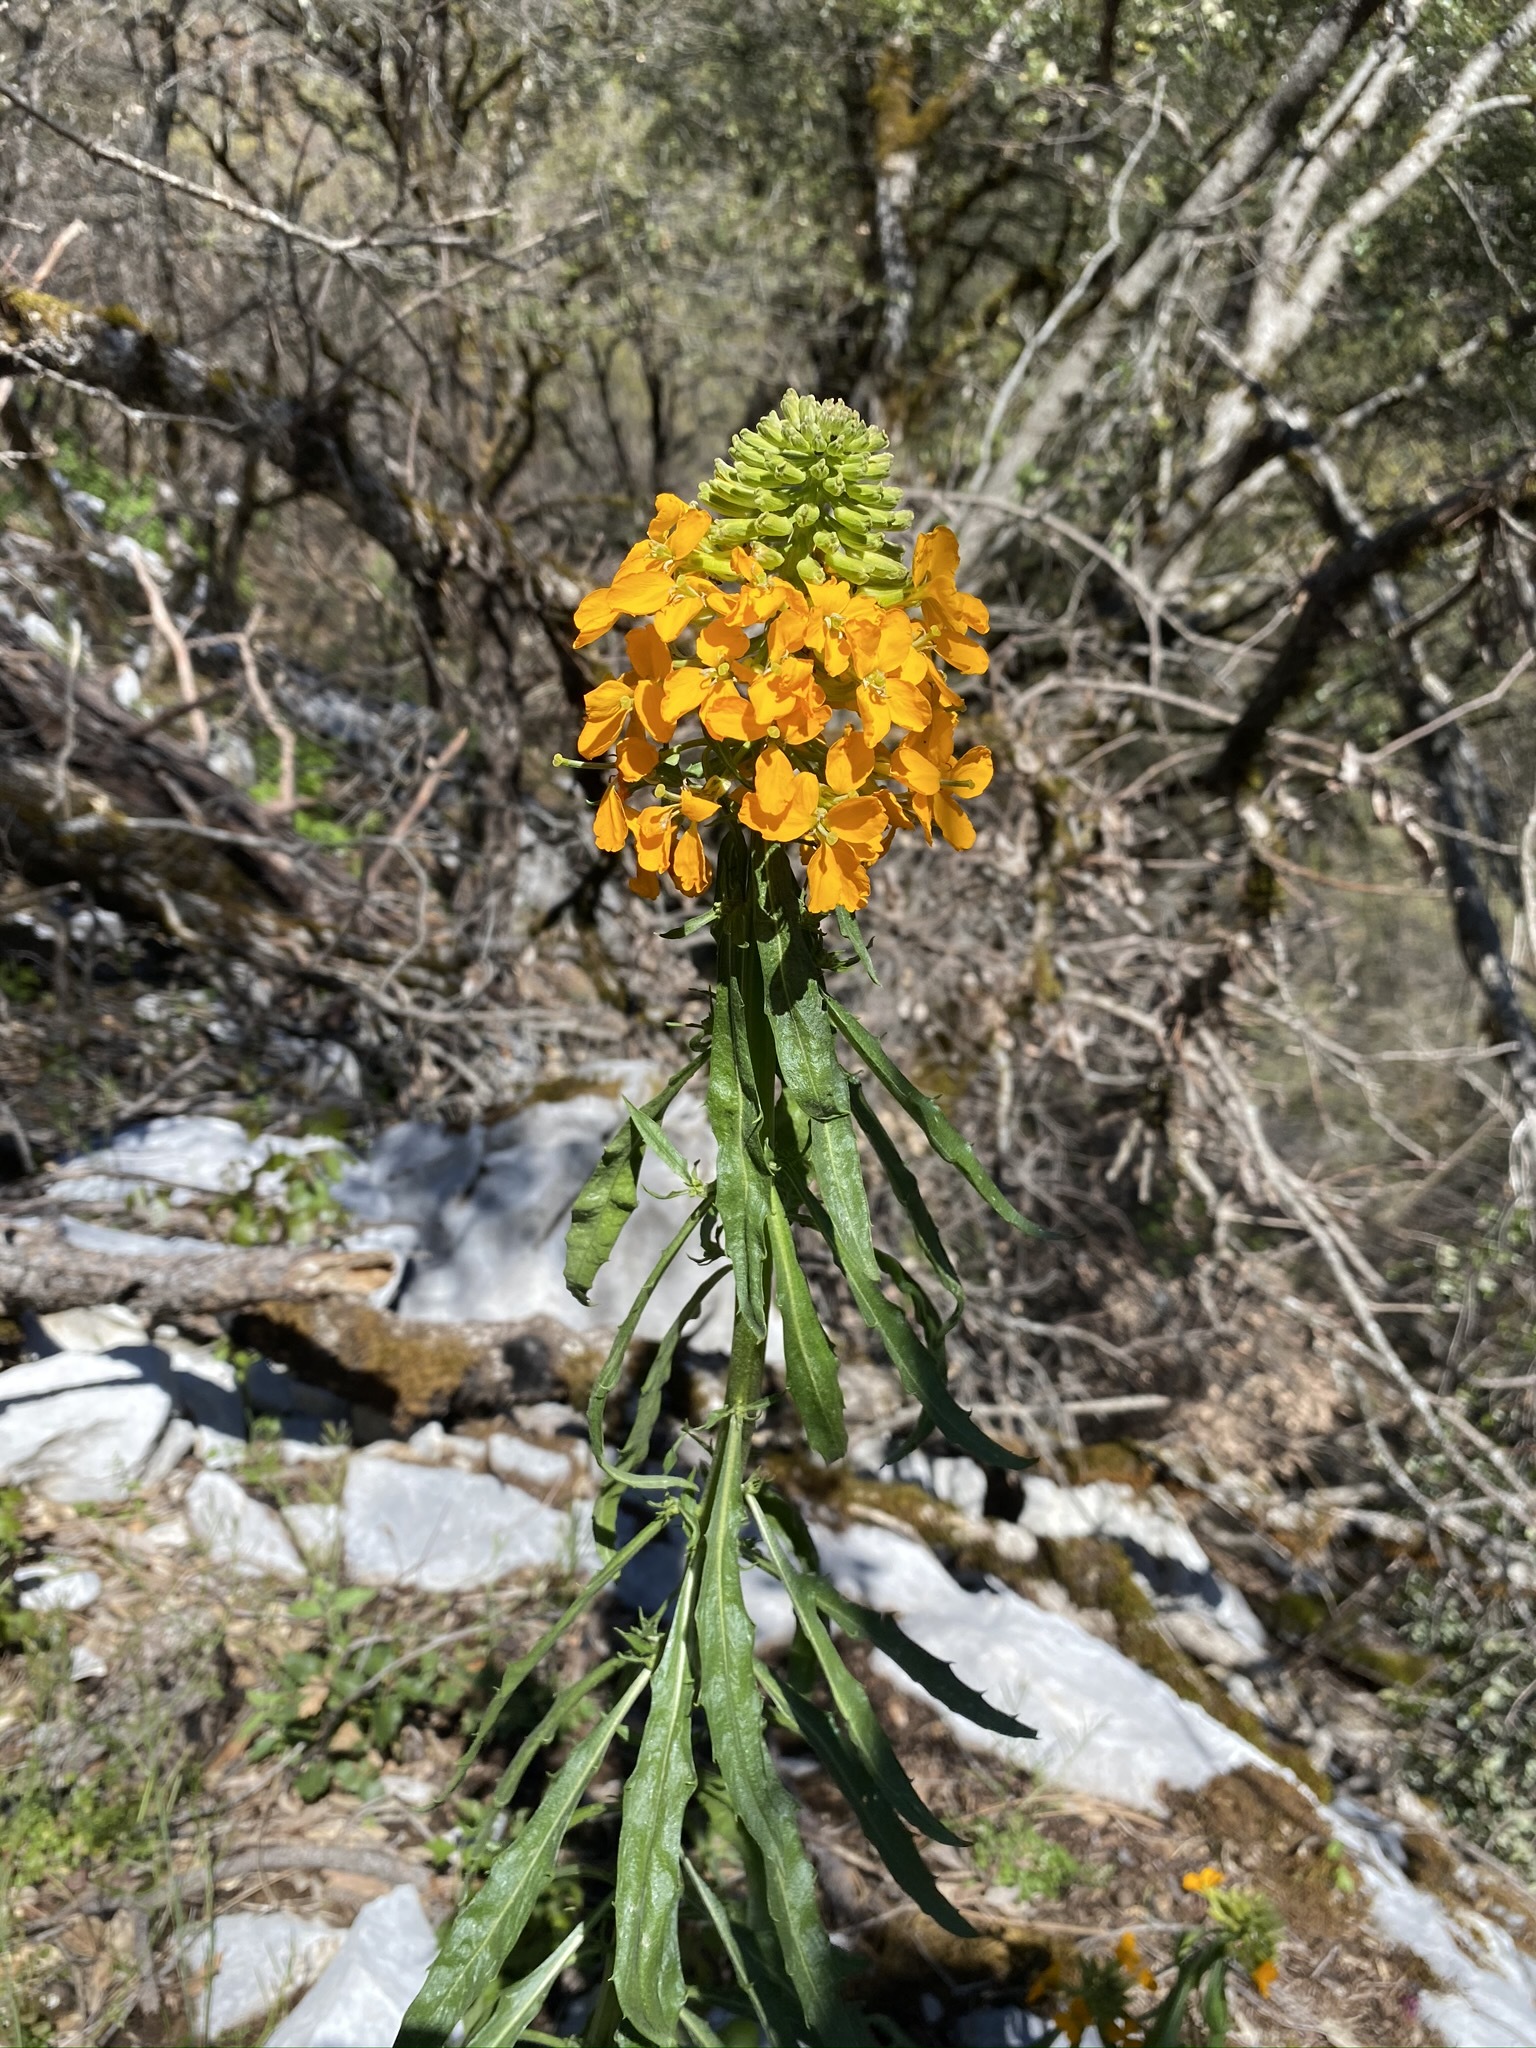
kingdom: Plantae
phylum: Tracheophyta
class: Magnoliopsida
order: Brassicales
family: Brassicaceae
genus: Erysimum
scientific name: Erysimum capitatum
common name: Western wallflower
